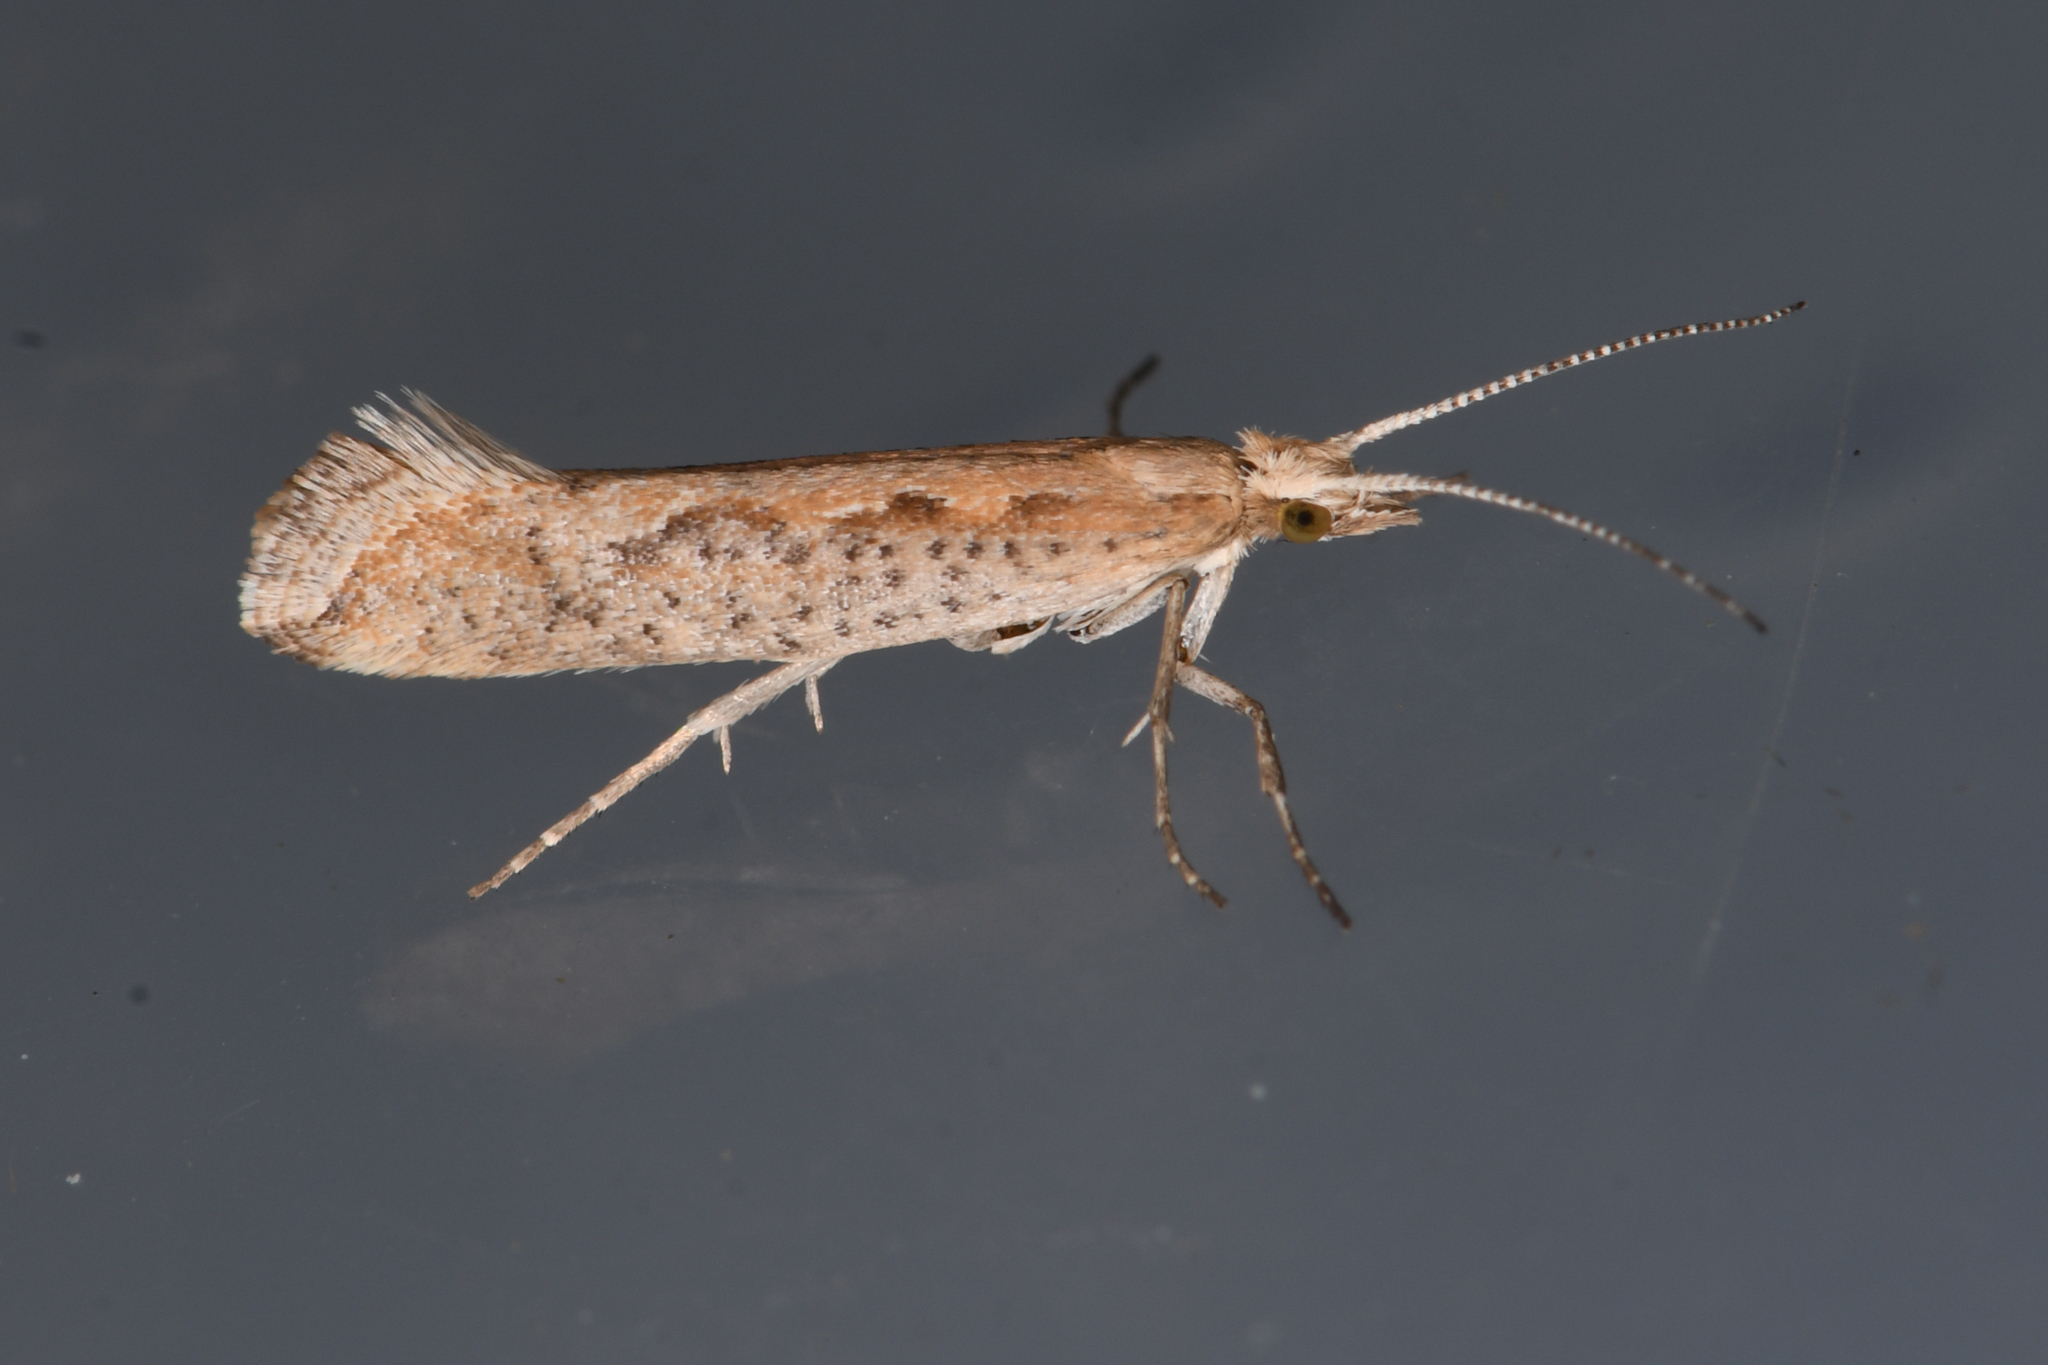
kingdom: Animalia
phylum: Arthropoda
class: Insecta
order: Lepidoptera
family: Plutellidae
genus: Plutella
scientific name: Plutella xylostella
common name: Diamond-back moth
